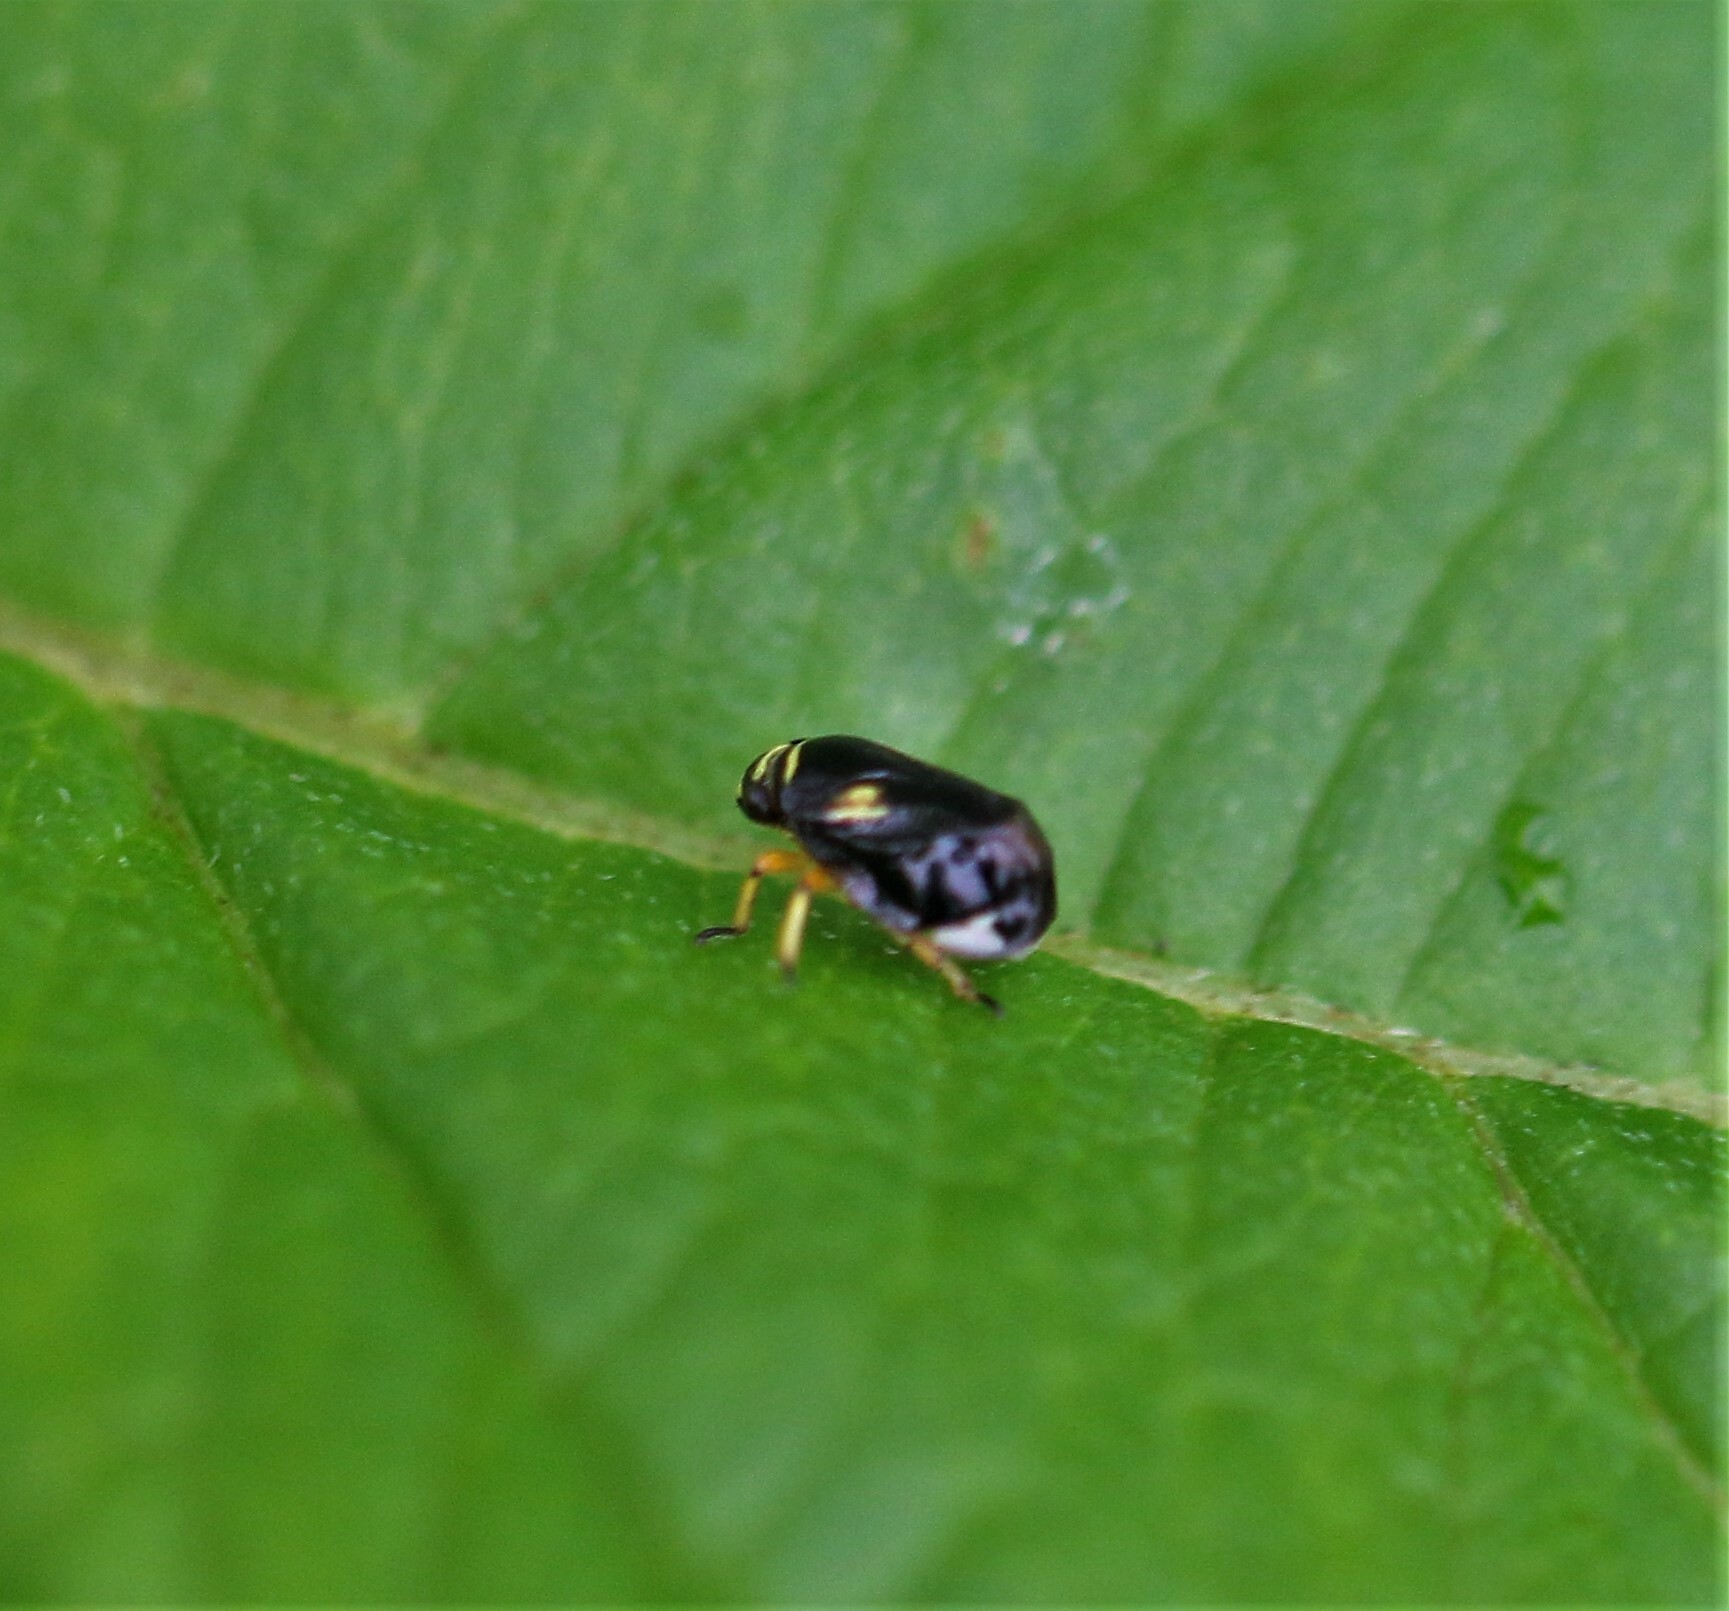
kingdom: Animalia
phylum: Arthropoda
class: Insecta
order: Hemiptera
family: Clastopteridae
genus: Clastoptera
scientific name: Clastoptera proteus
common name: Dogwood spittlebug
